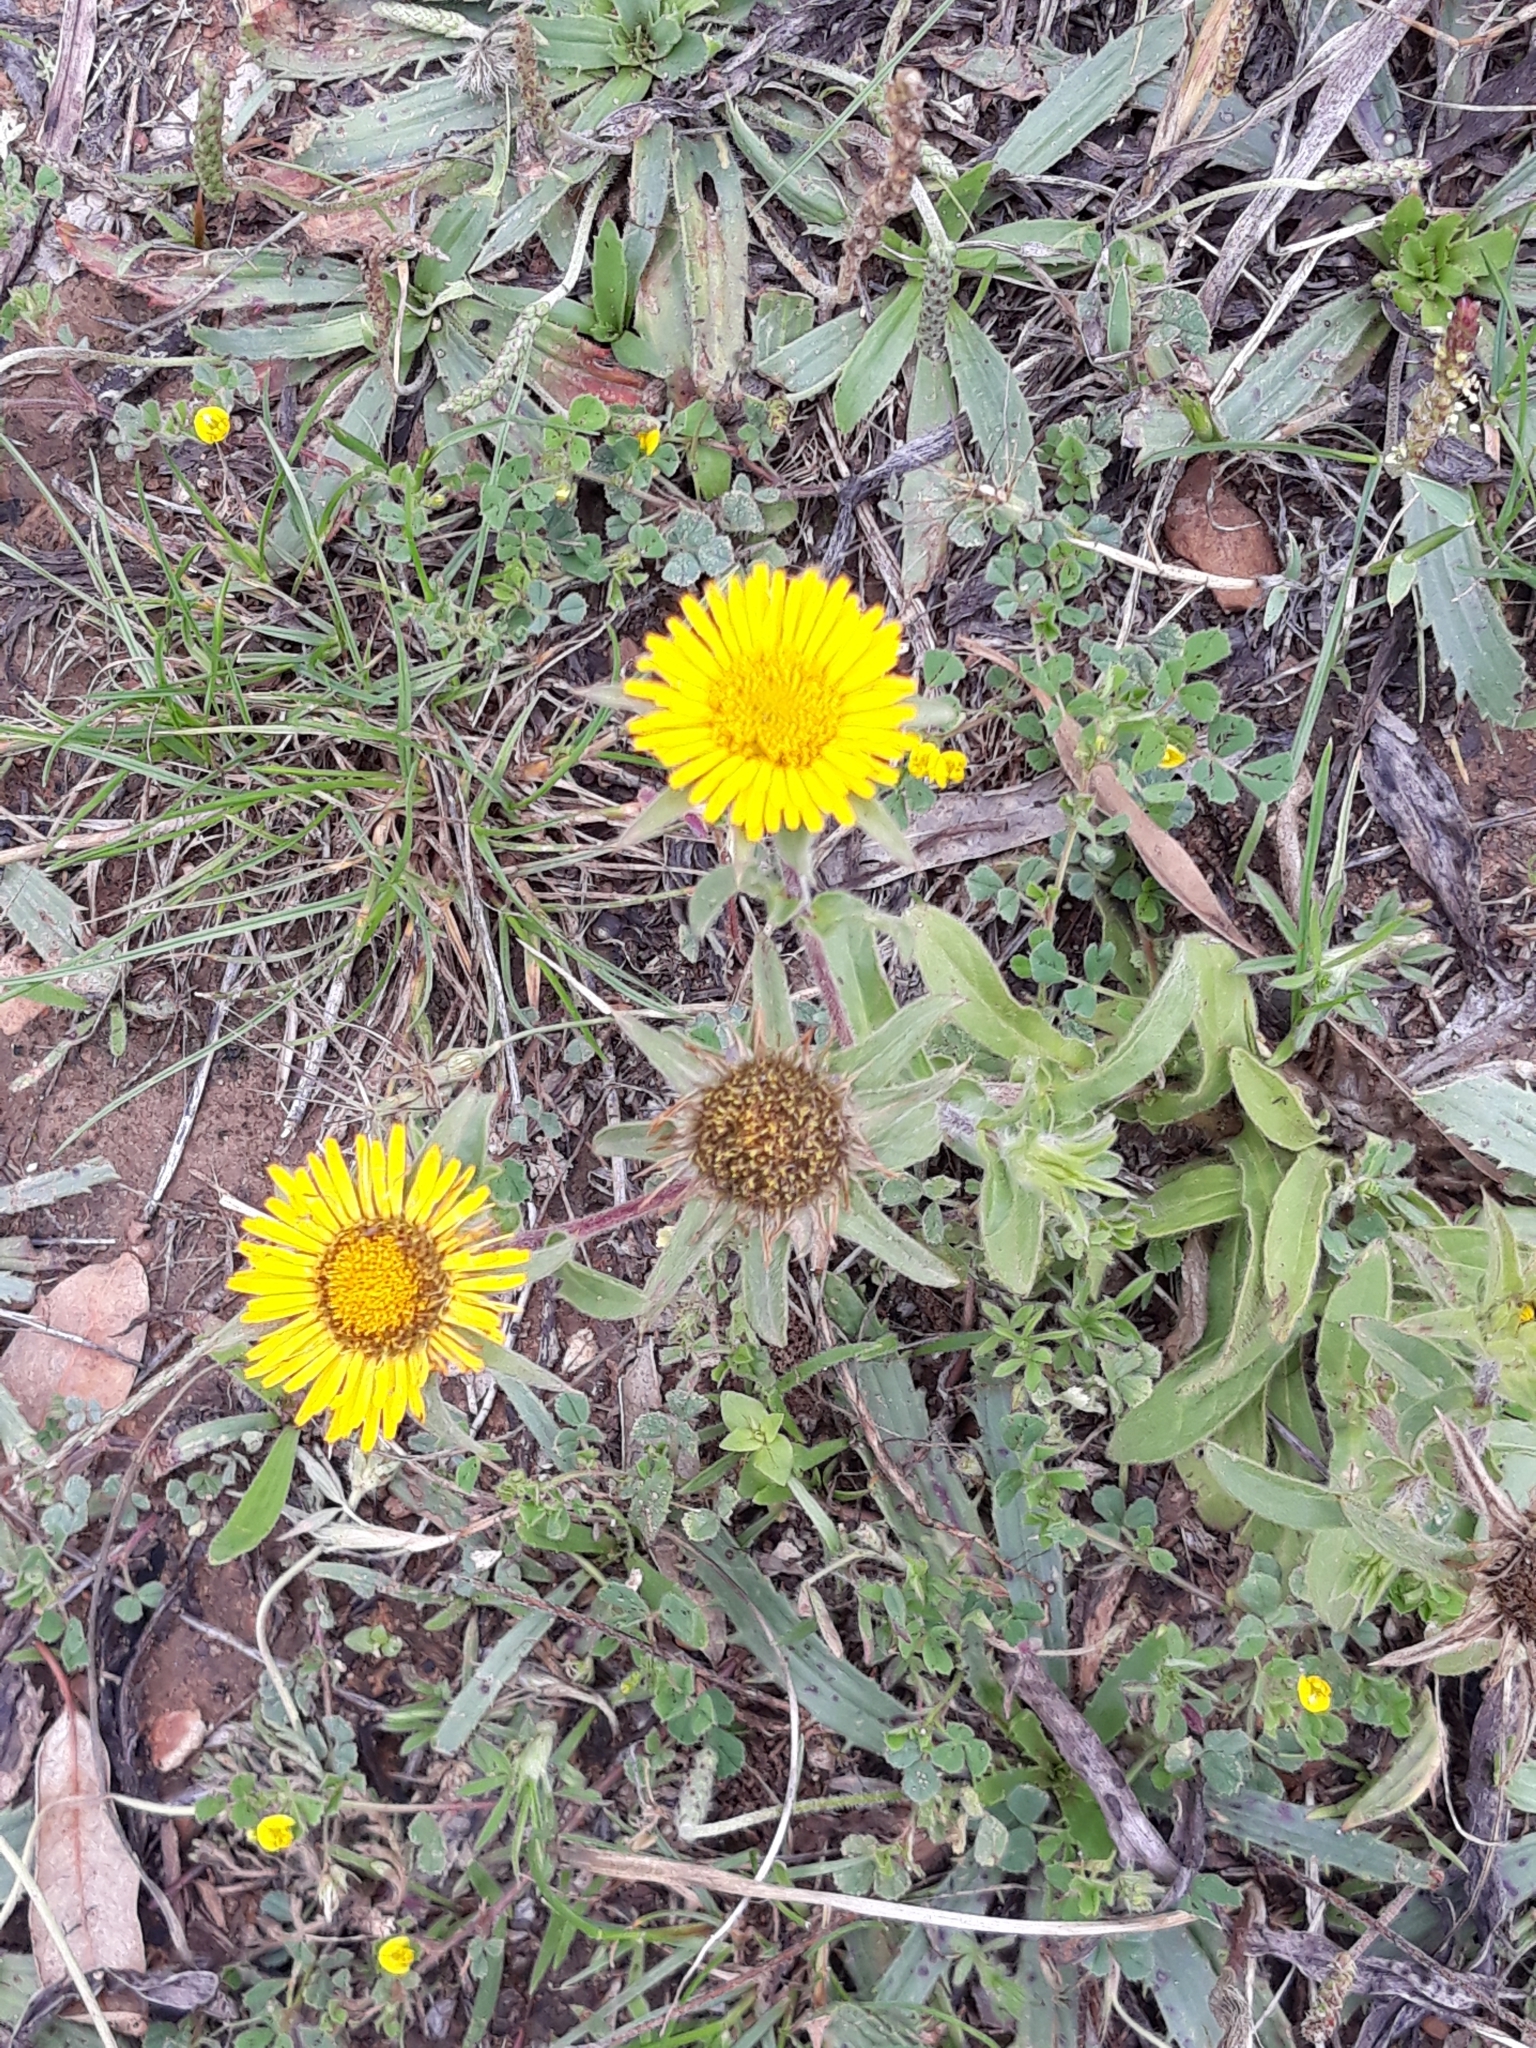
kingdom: Plantae
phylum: Tracheophyta
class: Magnoliopsida
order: Asterales
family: Asteraceae
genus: Pallenis
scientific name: Pallenis spinosa
